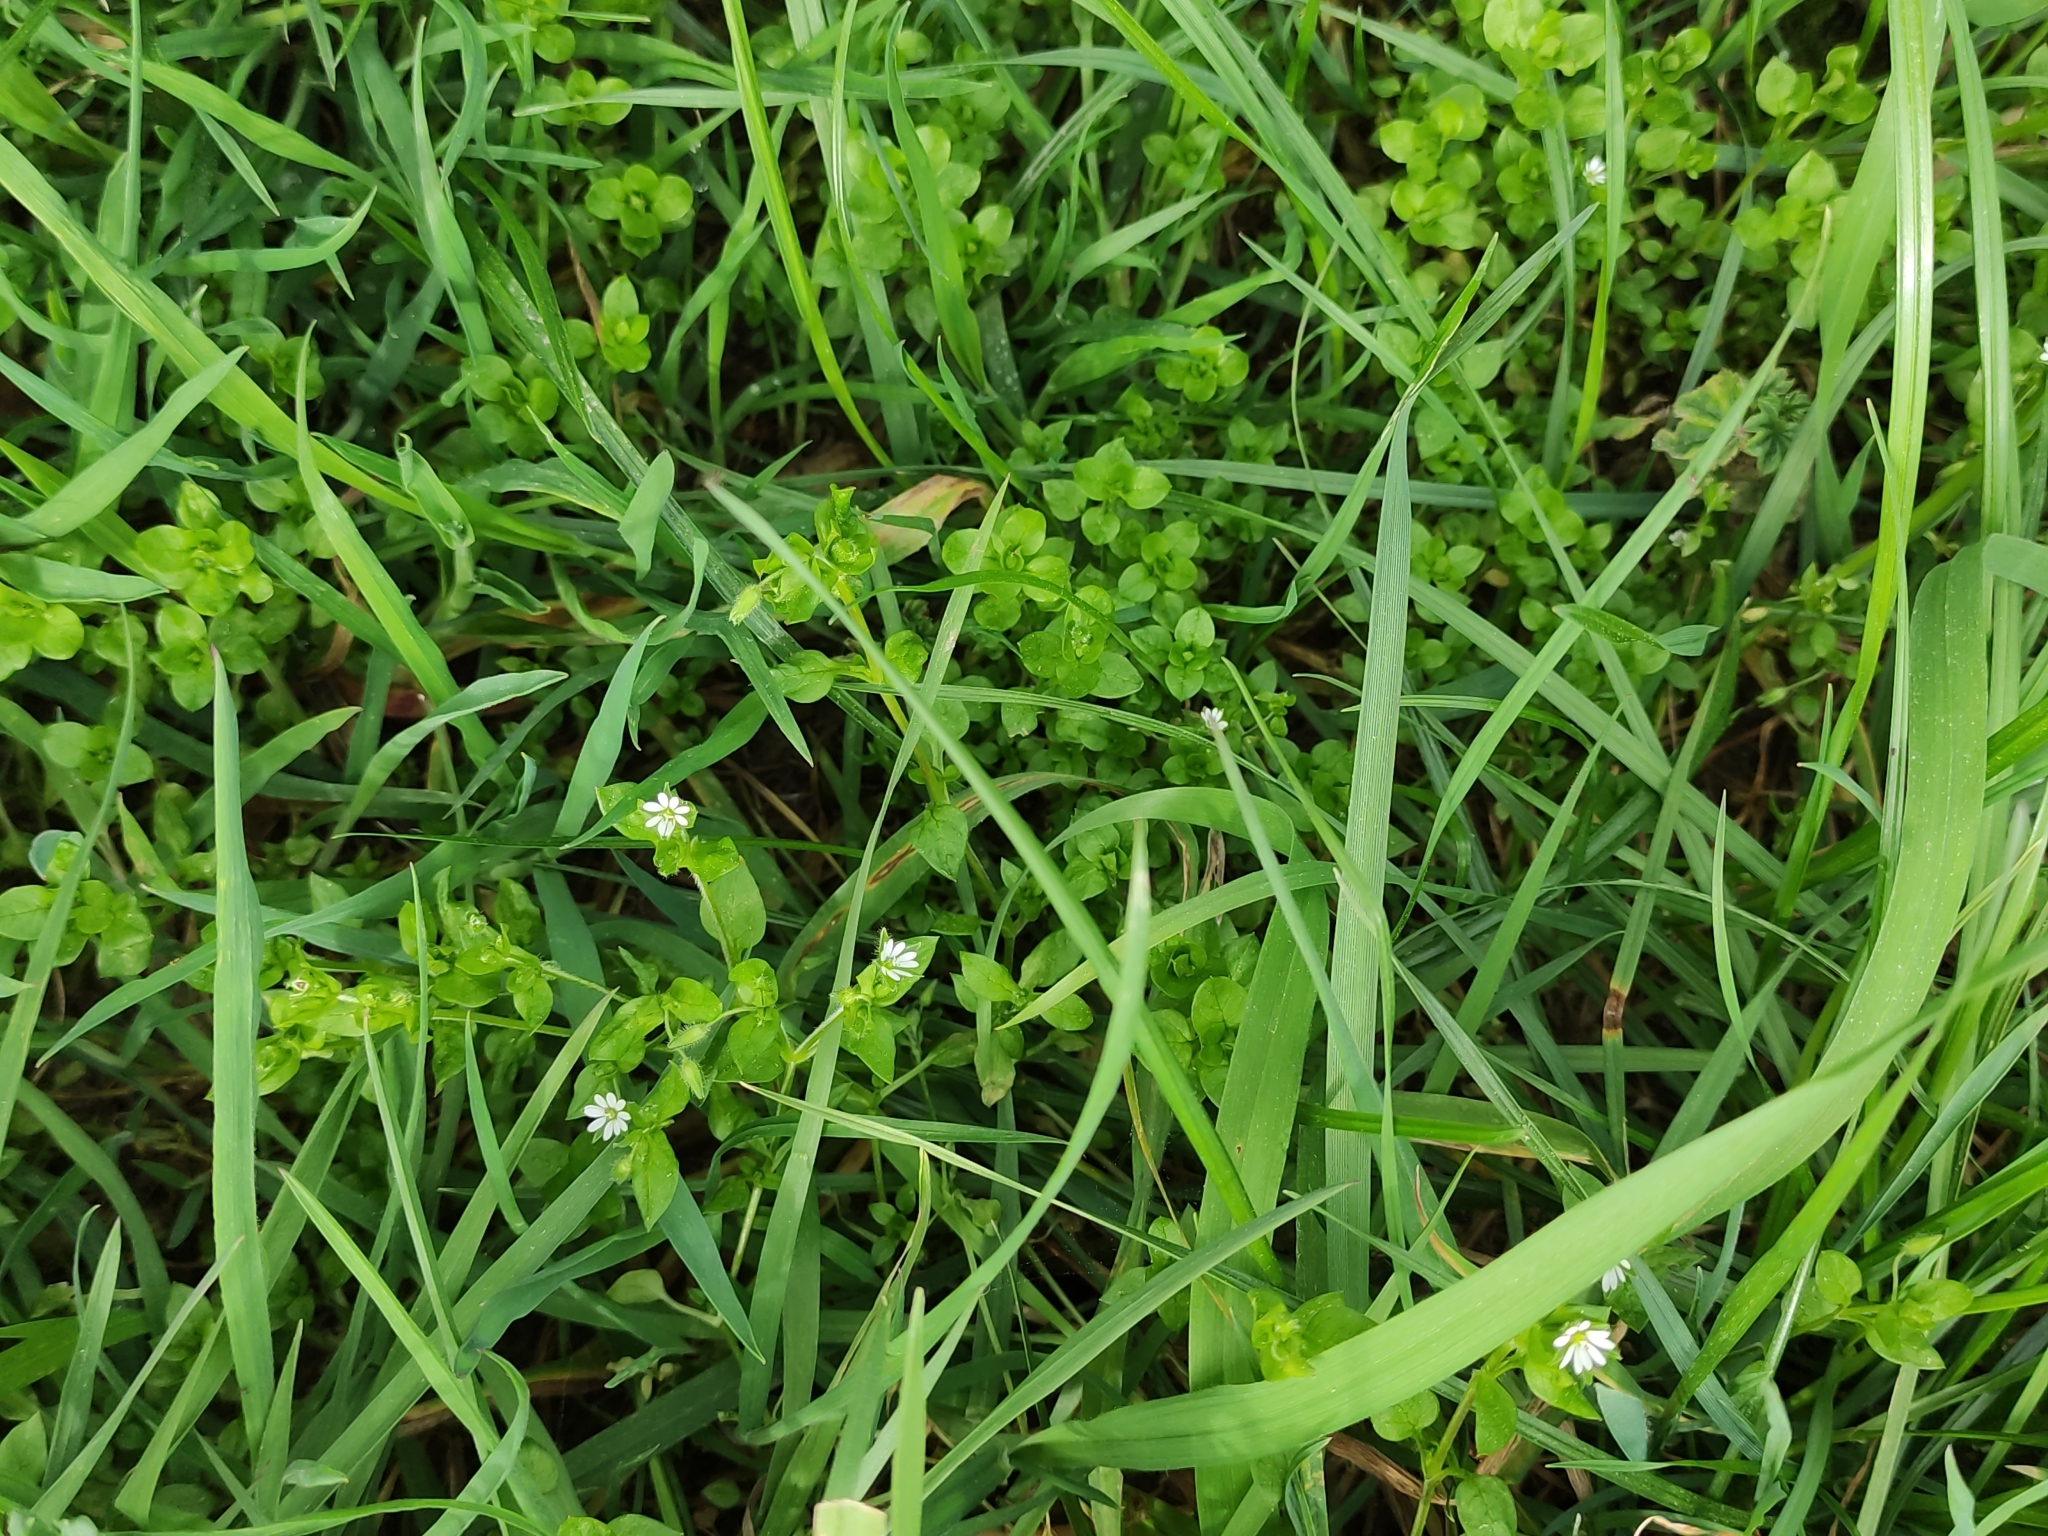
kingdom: Plantae
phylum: Tracheophyta
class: Magnoliopsida
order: Caryophyllales
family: Caryophyllaceae
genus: Stellaria
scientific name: Stellaria media
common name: Common chickweed
